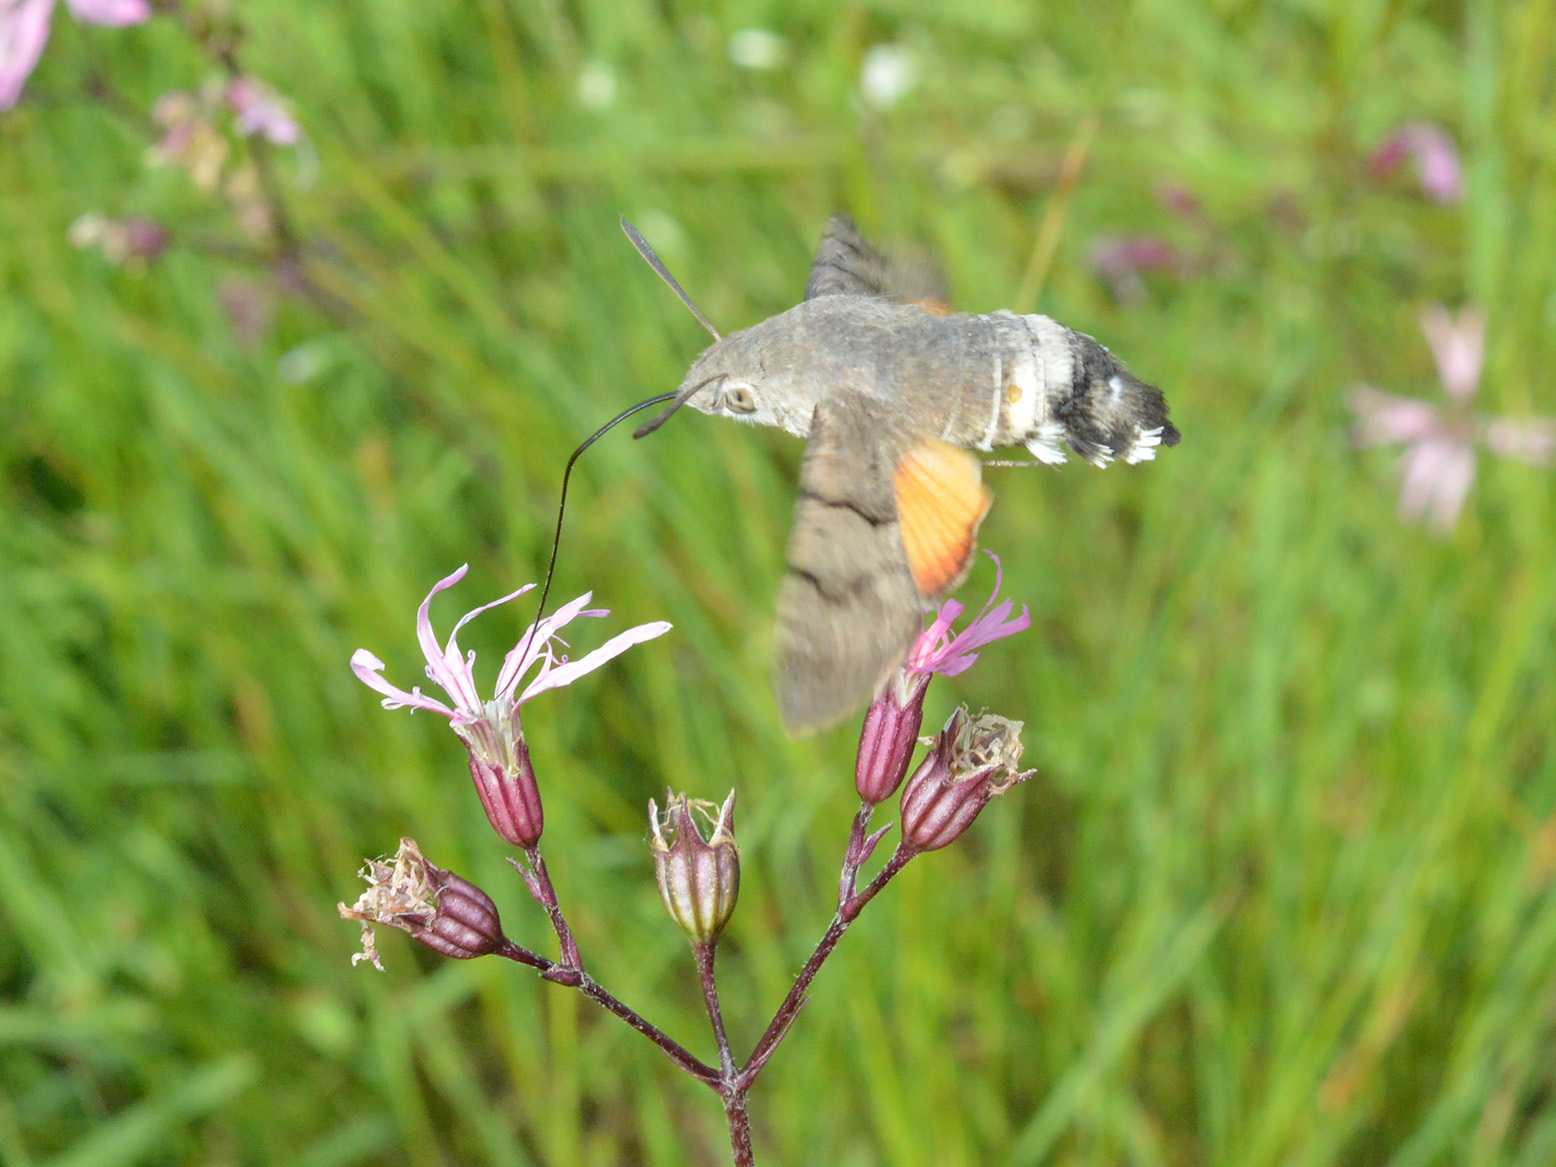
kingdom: Animalia
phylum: Arthropoda
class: Insecta
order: Lepidoptera
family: Sphingidae
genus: Macroglossum
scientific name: Macroglossum stellatarum
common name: Humming-bird hawk-moth
